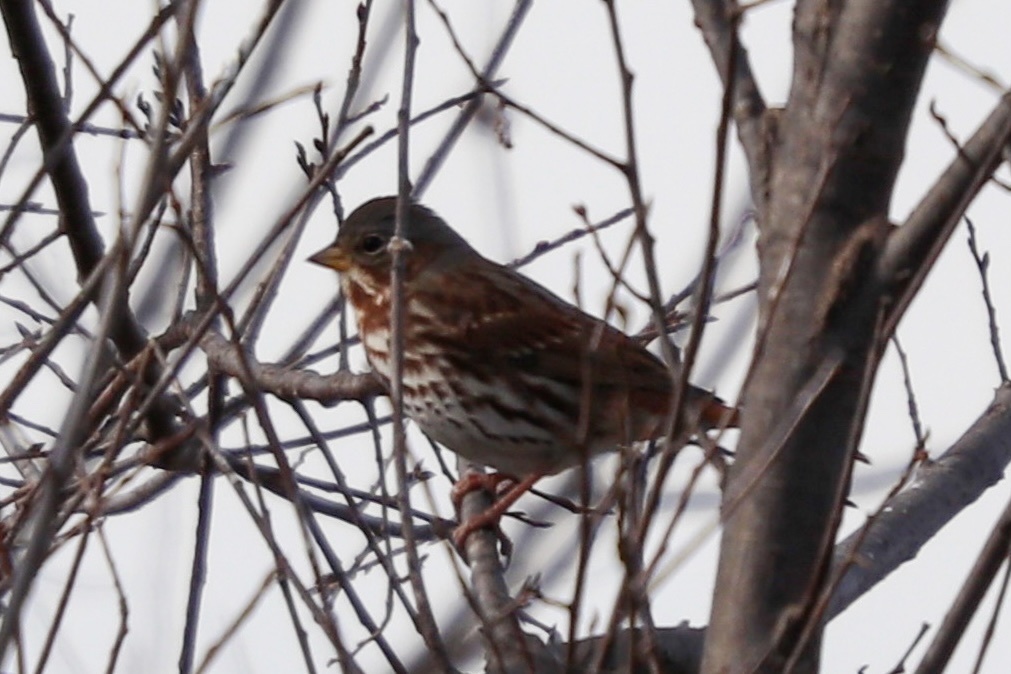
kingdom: Animalia
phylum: Chordata
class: Aves
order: Passeriformes
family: Passerellidae
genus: Passerella
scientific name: Passerella iliaca
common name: Fox sparrow
